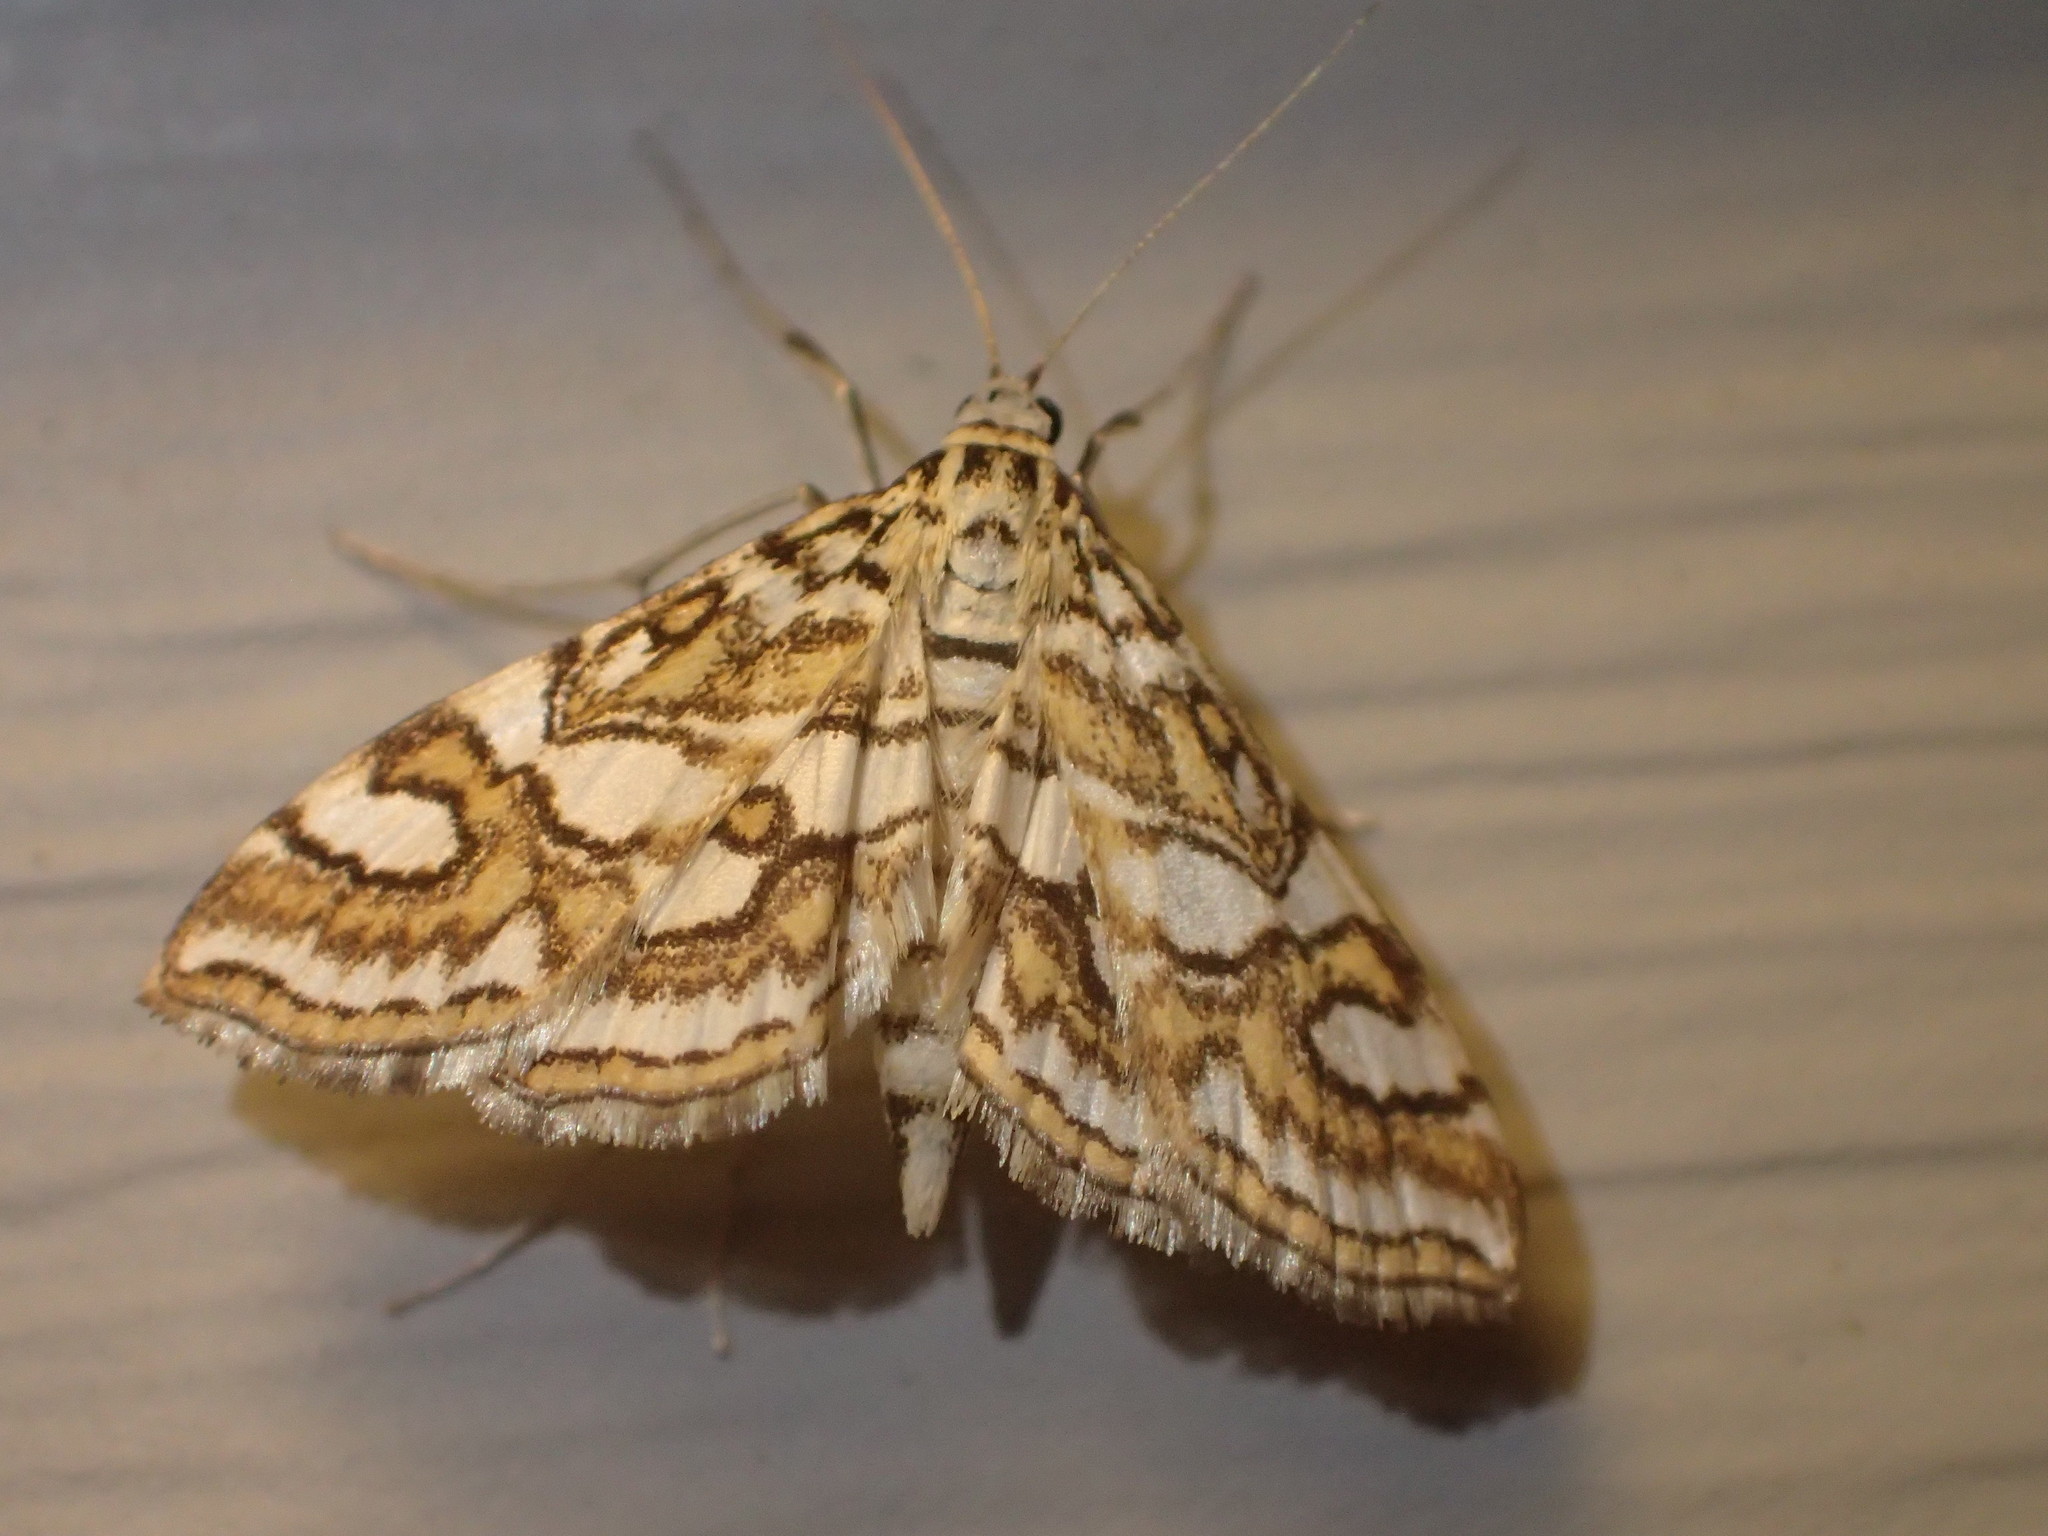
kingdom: Animalia
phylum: Arthropoda
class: Insecta
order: Lepidoptera
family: Crambidae
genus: Elophila
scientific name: Elophila ekthlipsis
